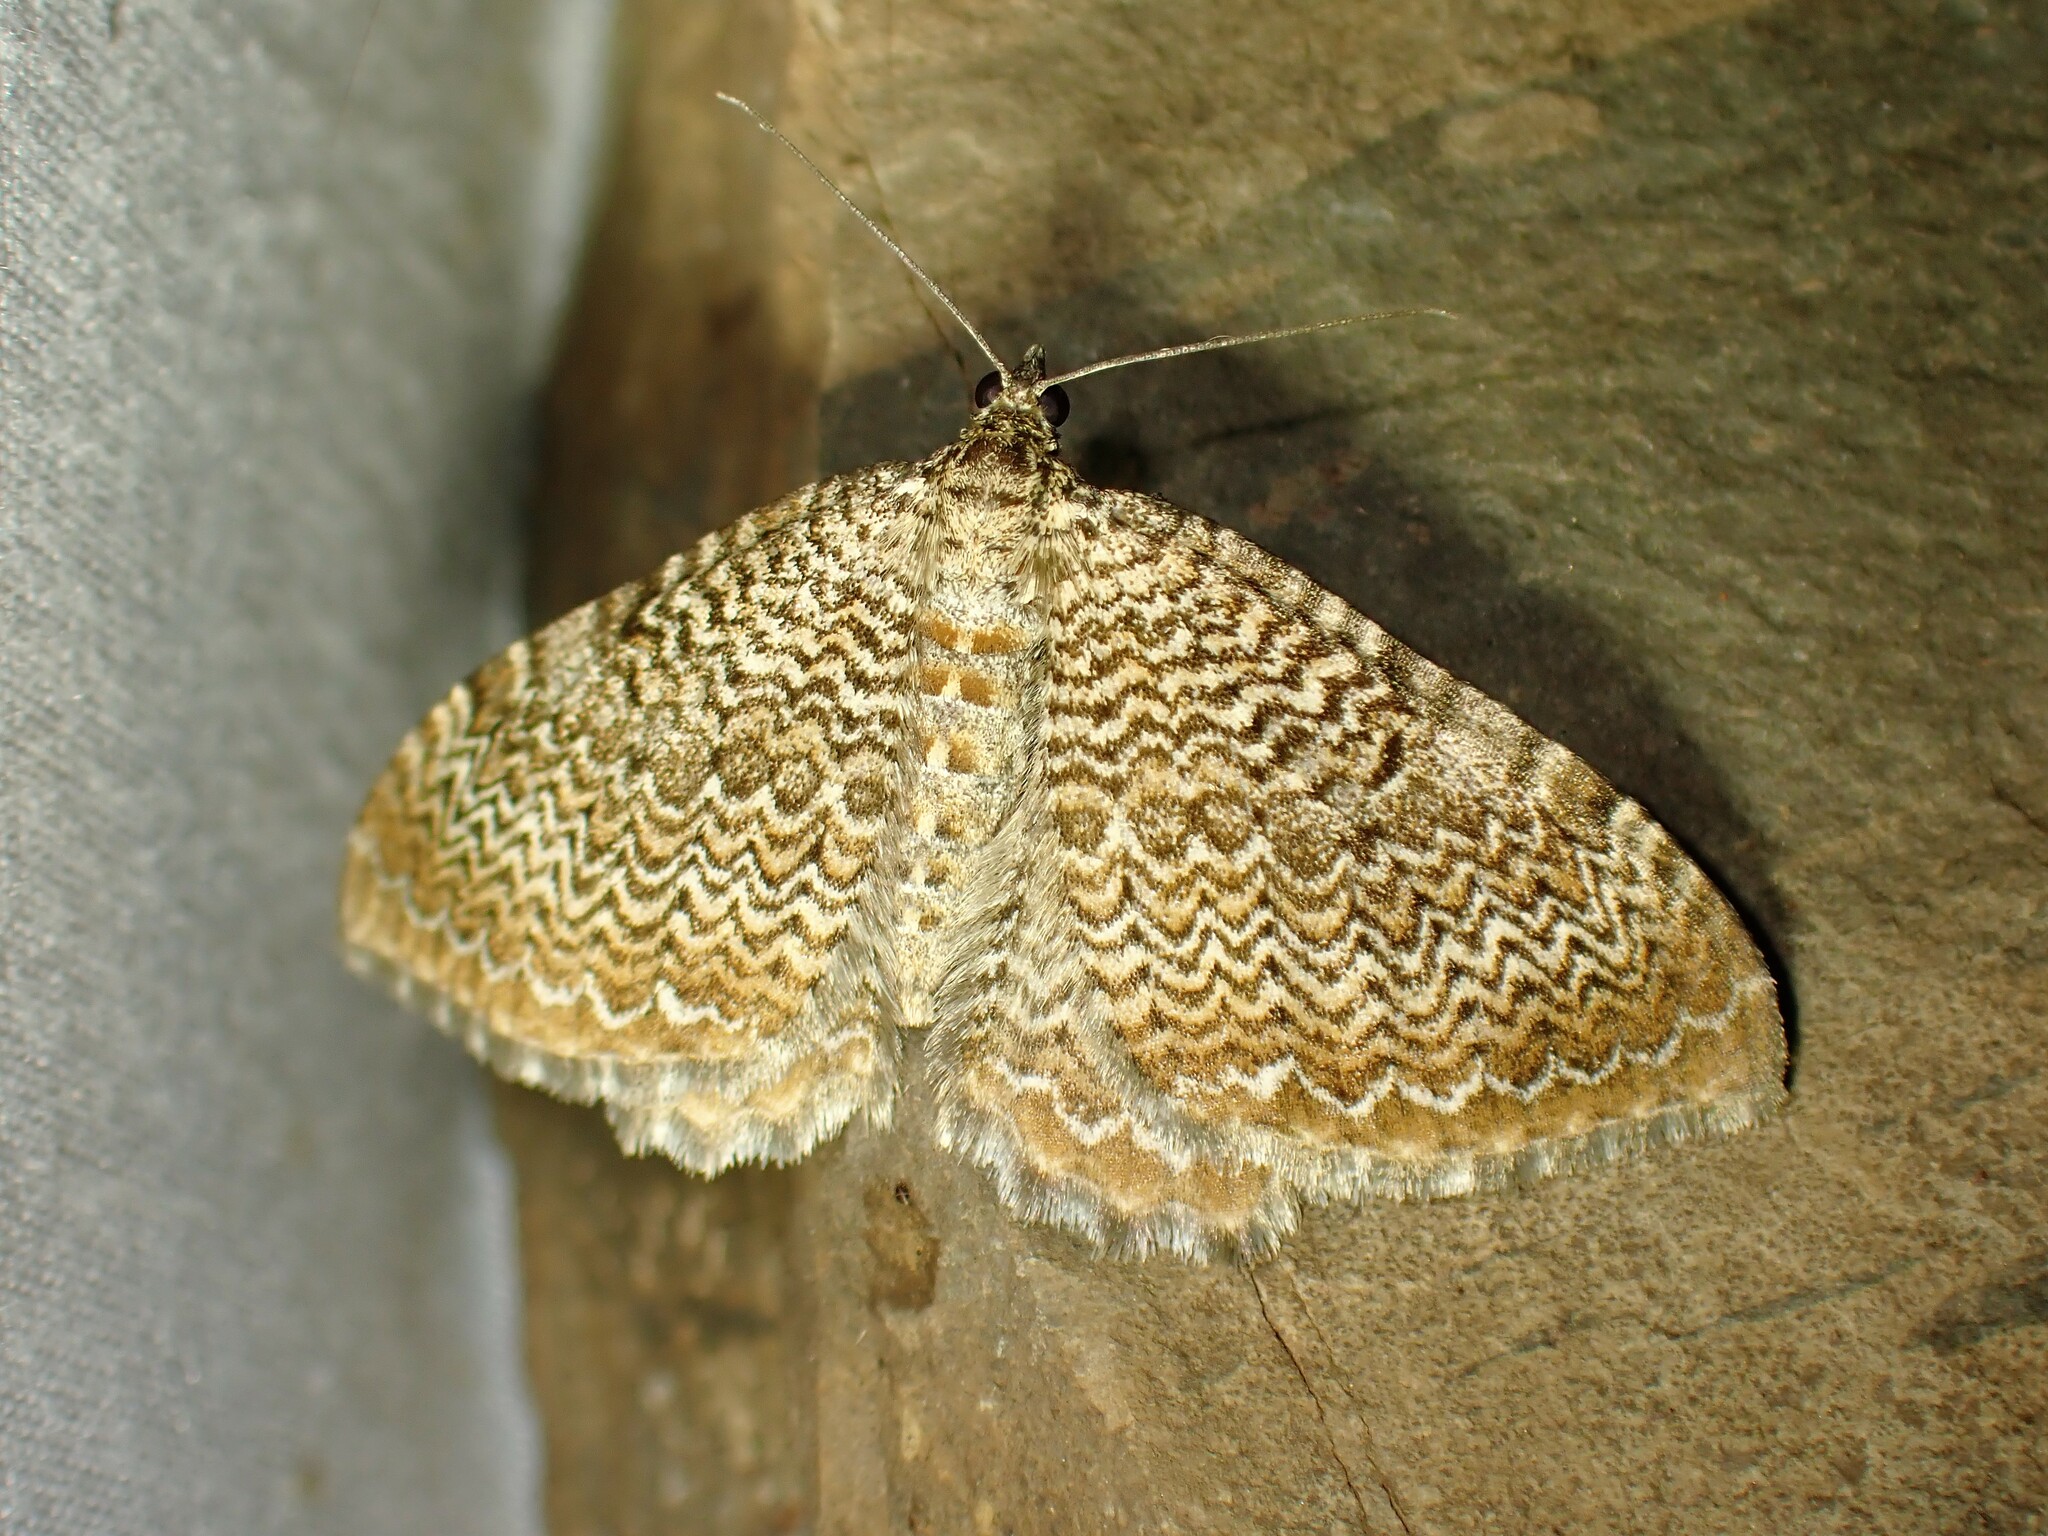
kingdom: Animalia
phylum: Arthropoda
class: Insecta
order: Lepidoptera
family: Geometridae
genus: Rheumaptera
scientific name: Rheumaptera
